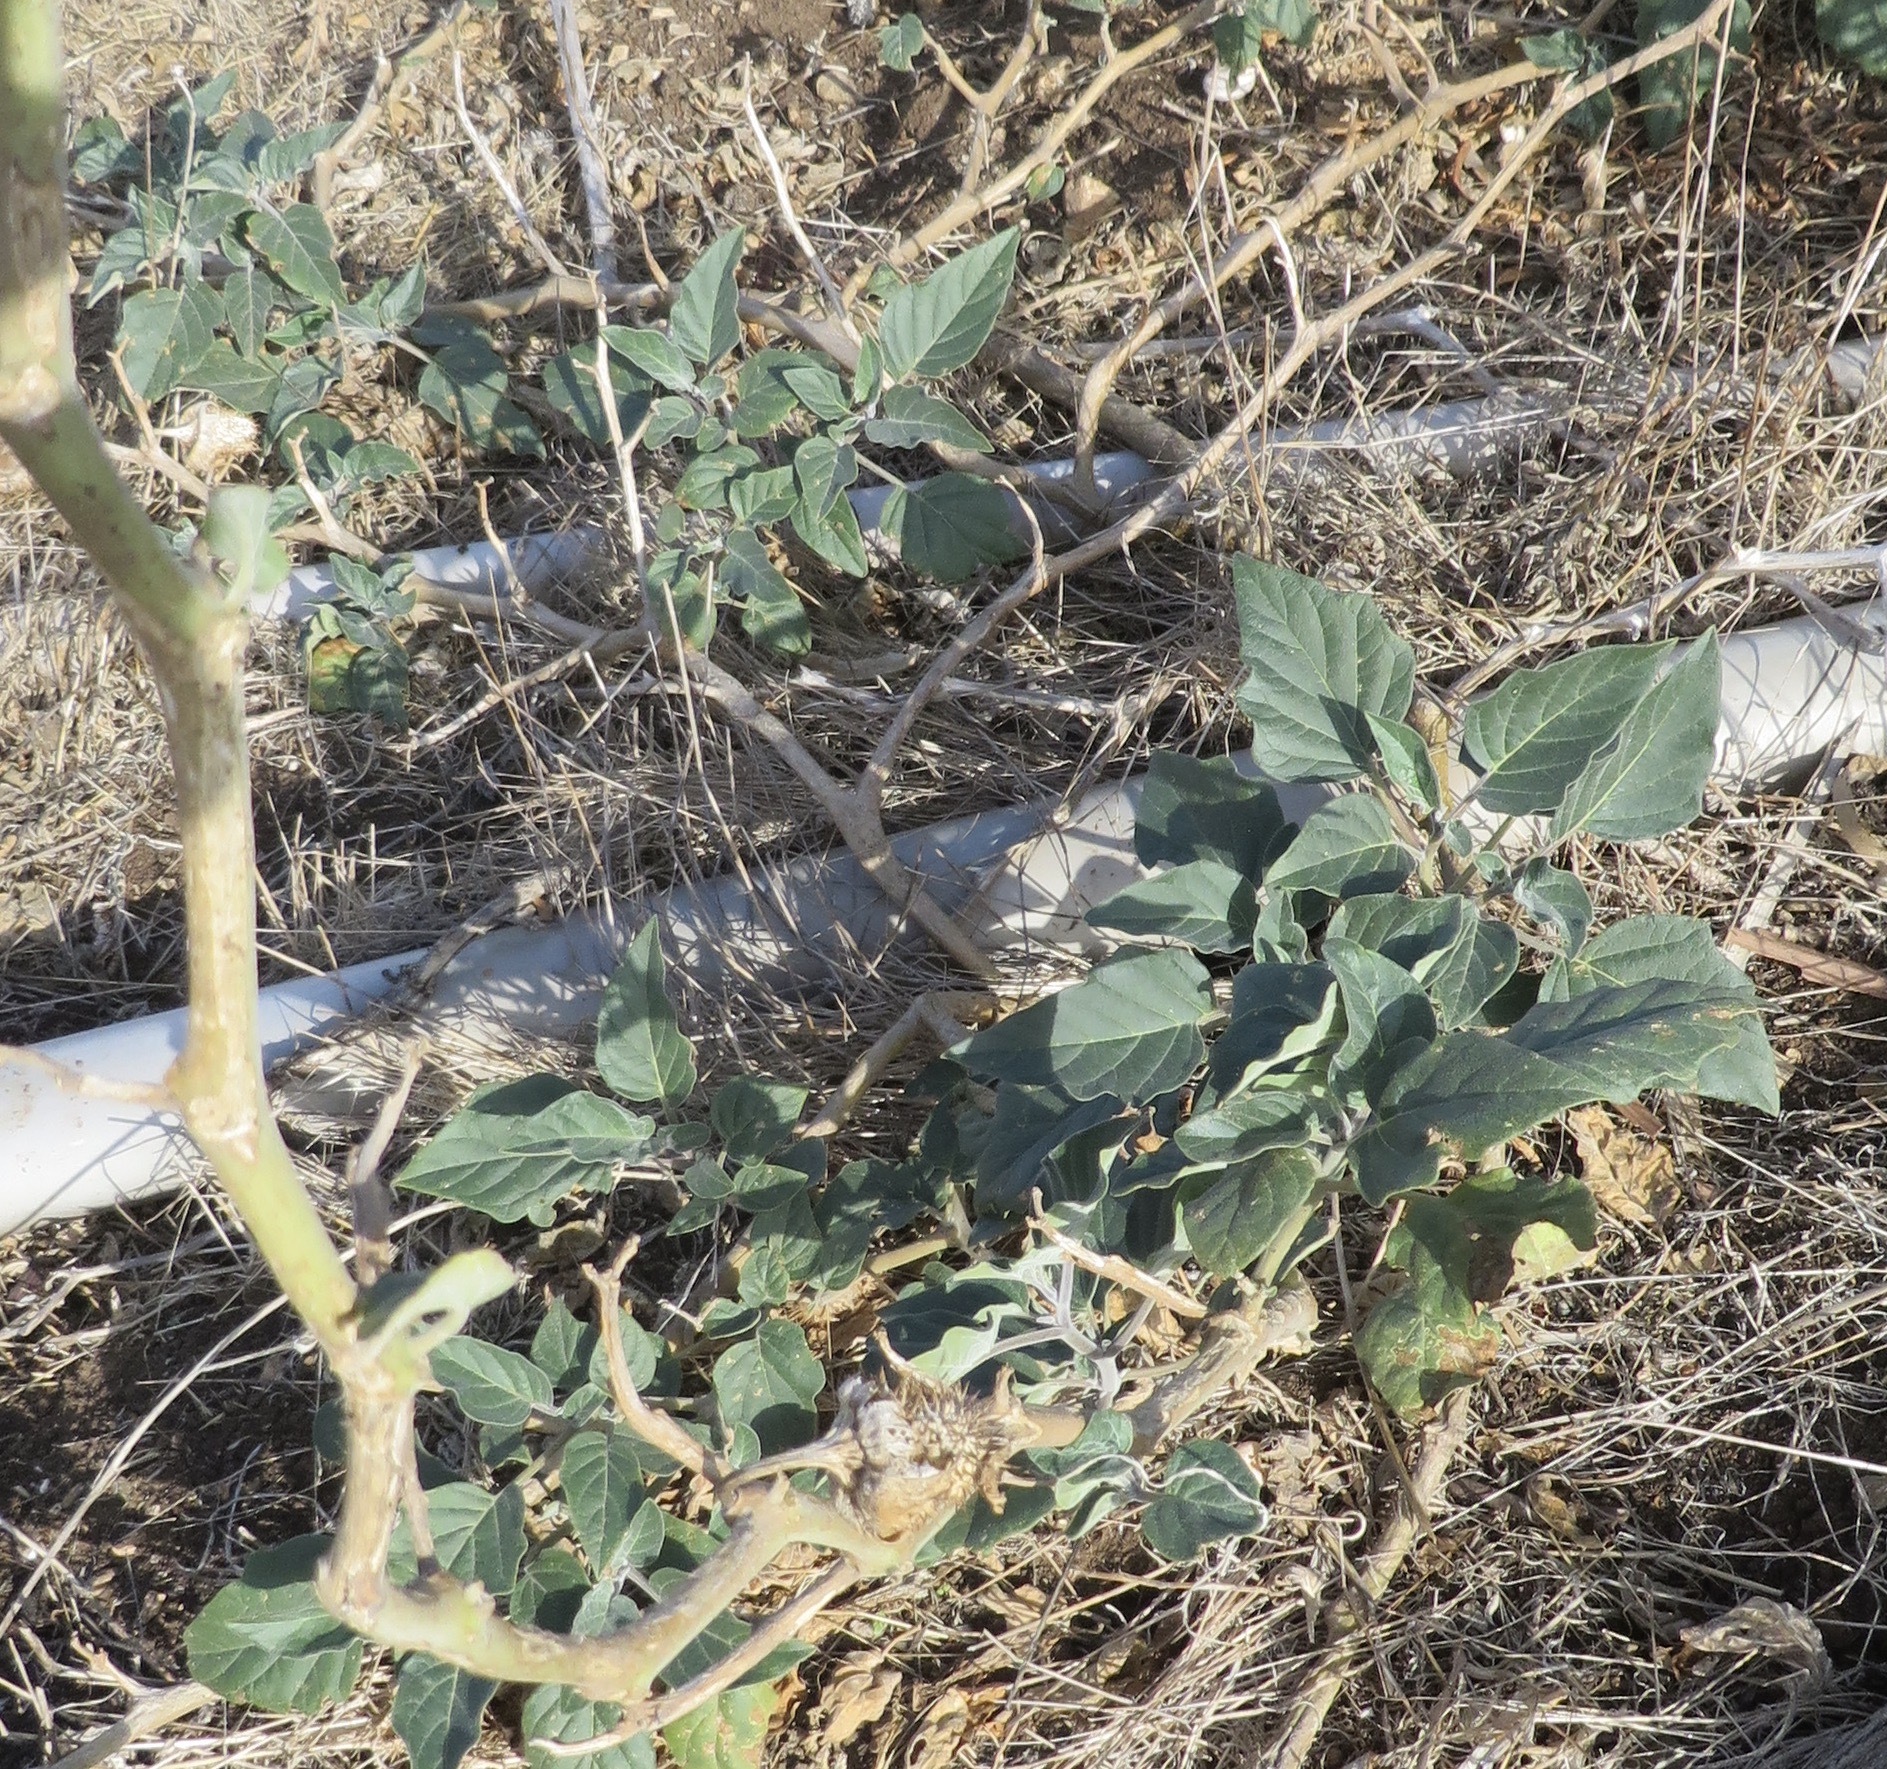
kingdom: Plantae
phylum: Tracheophyta
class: Magnoliopsida
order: Solanales
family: Solanaceae
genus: Datura
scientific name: Datura wrightii
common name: Sacred thorn-apple
